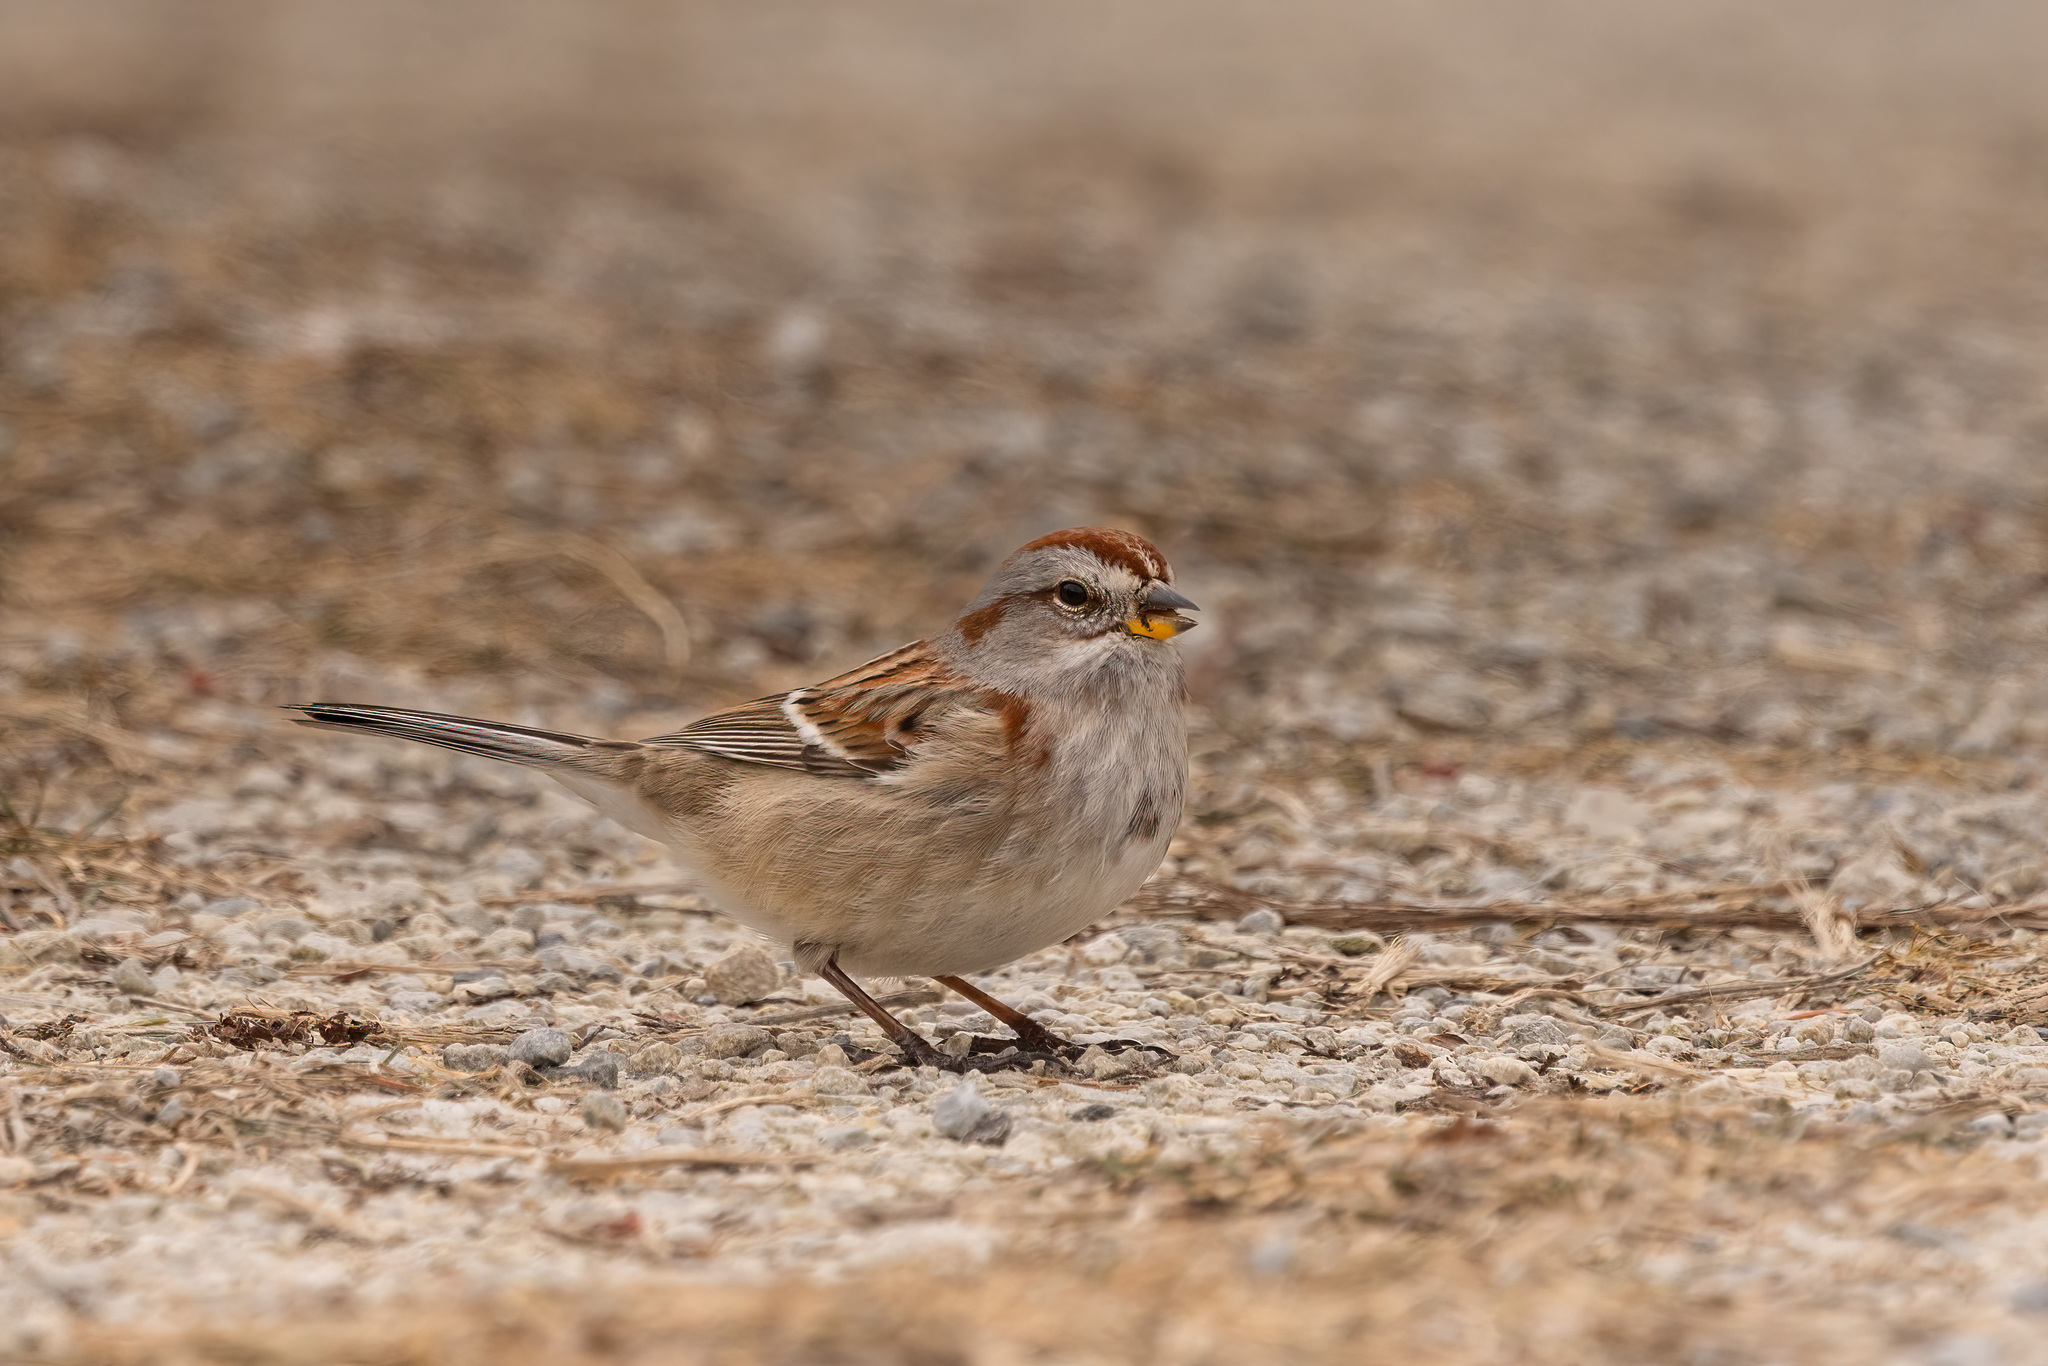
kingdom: Animalia
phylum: Chordata
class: Aves
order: Passeriformes
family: Passerellidae
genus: Spizelloides
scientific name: Spizelloides arborea
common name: American tree sparrow
